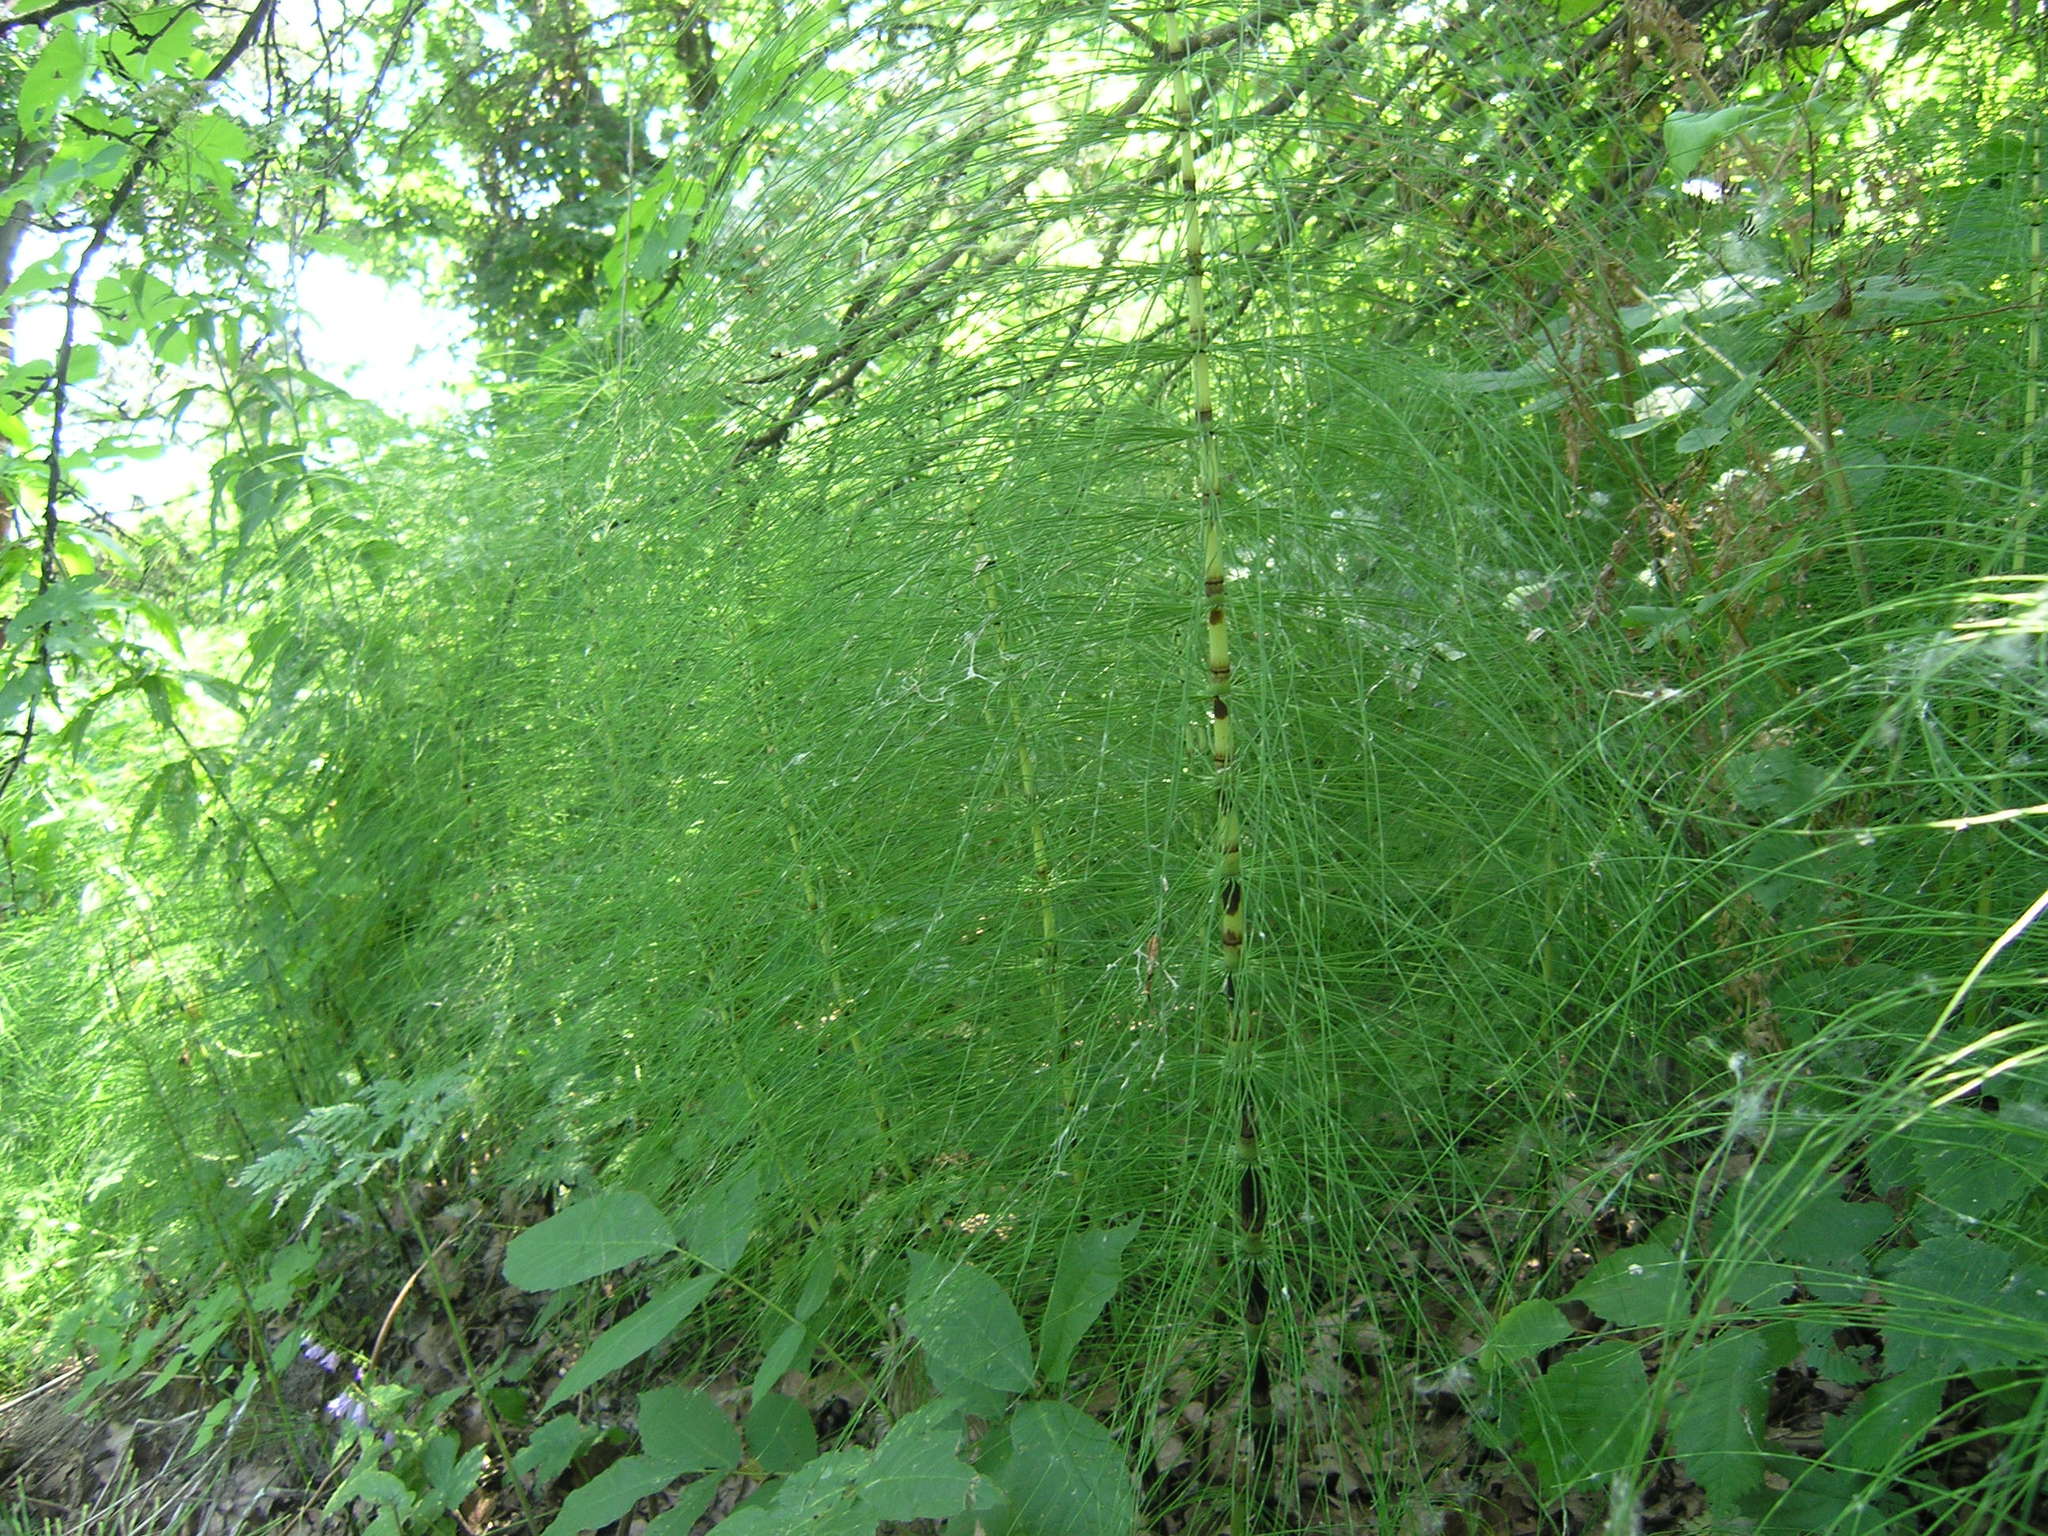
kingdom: Plantae
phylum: Tracheophyta
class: Polypodiopsida
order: Equisetales
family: Equisetaceae
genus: Equisetum
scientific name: Equisetum telmateia
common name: Great horsetail
